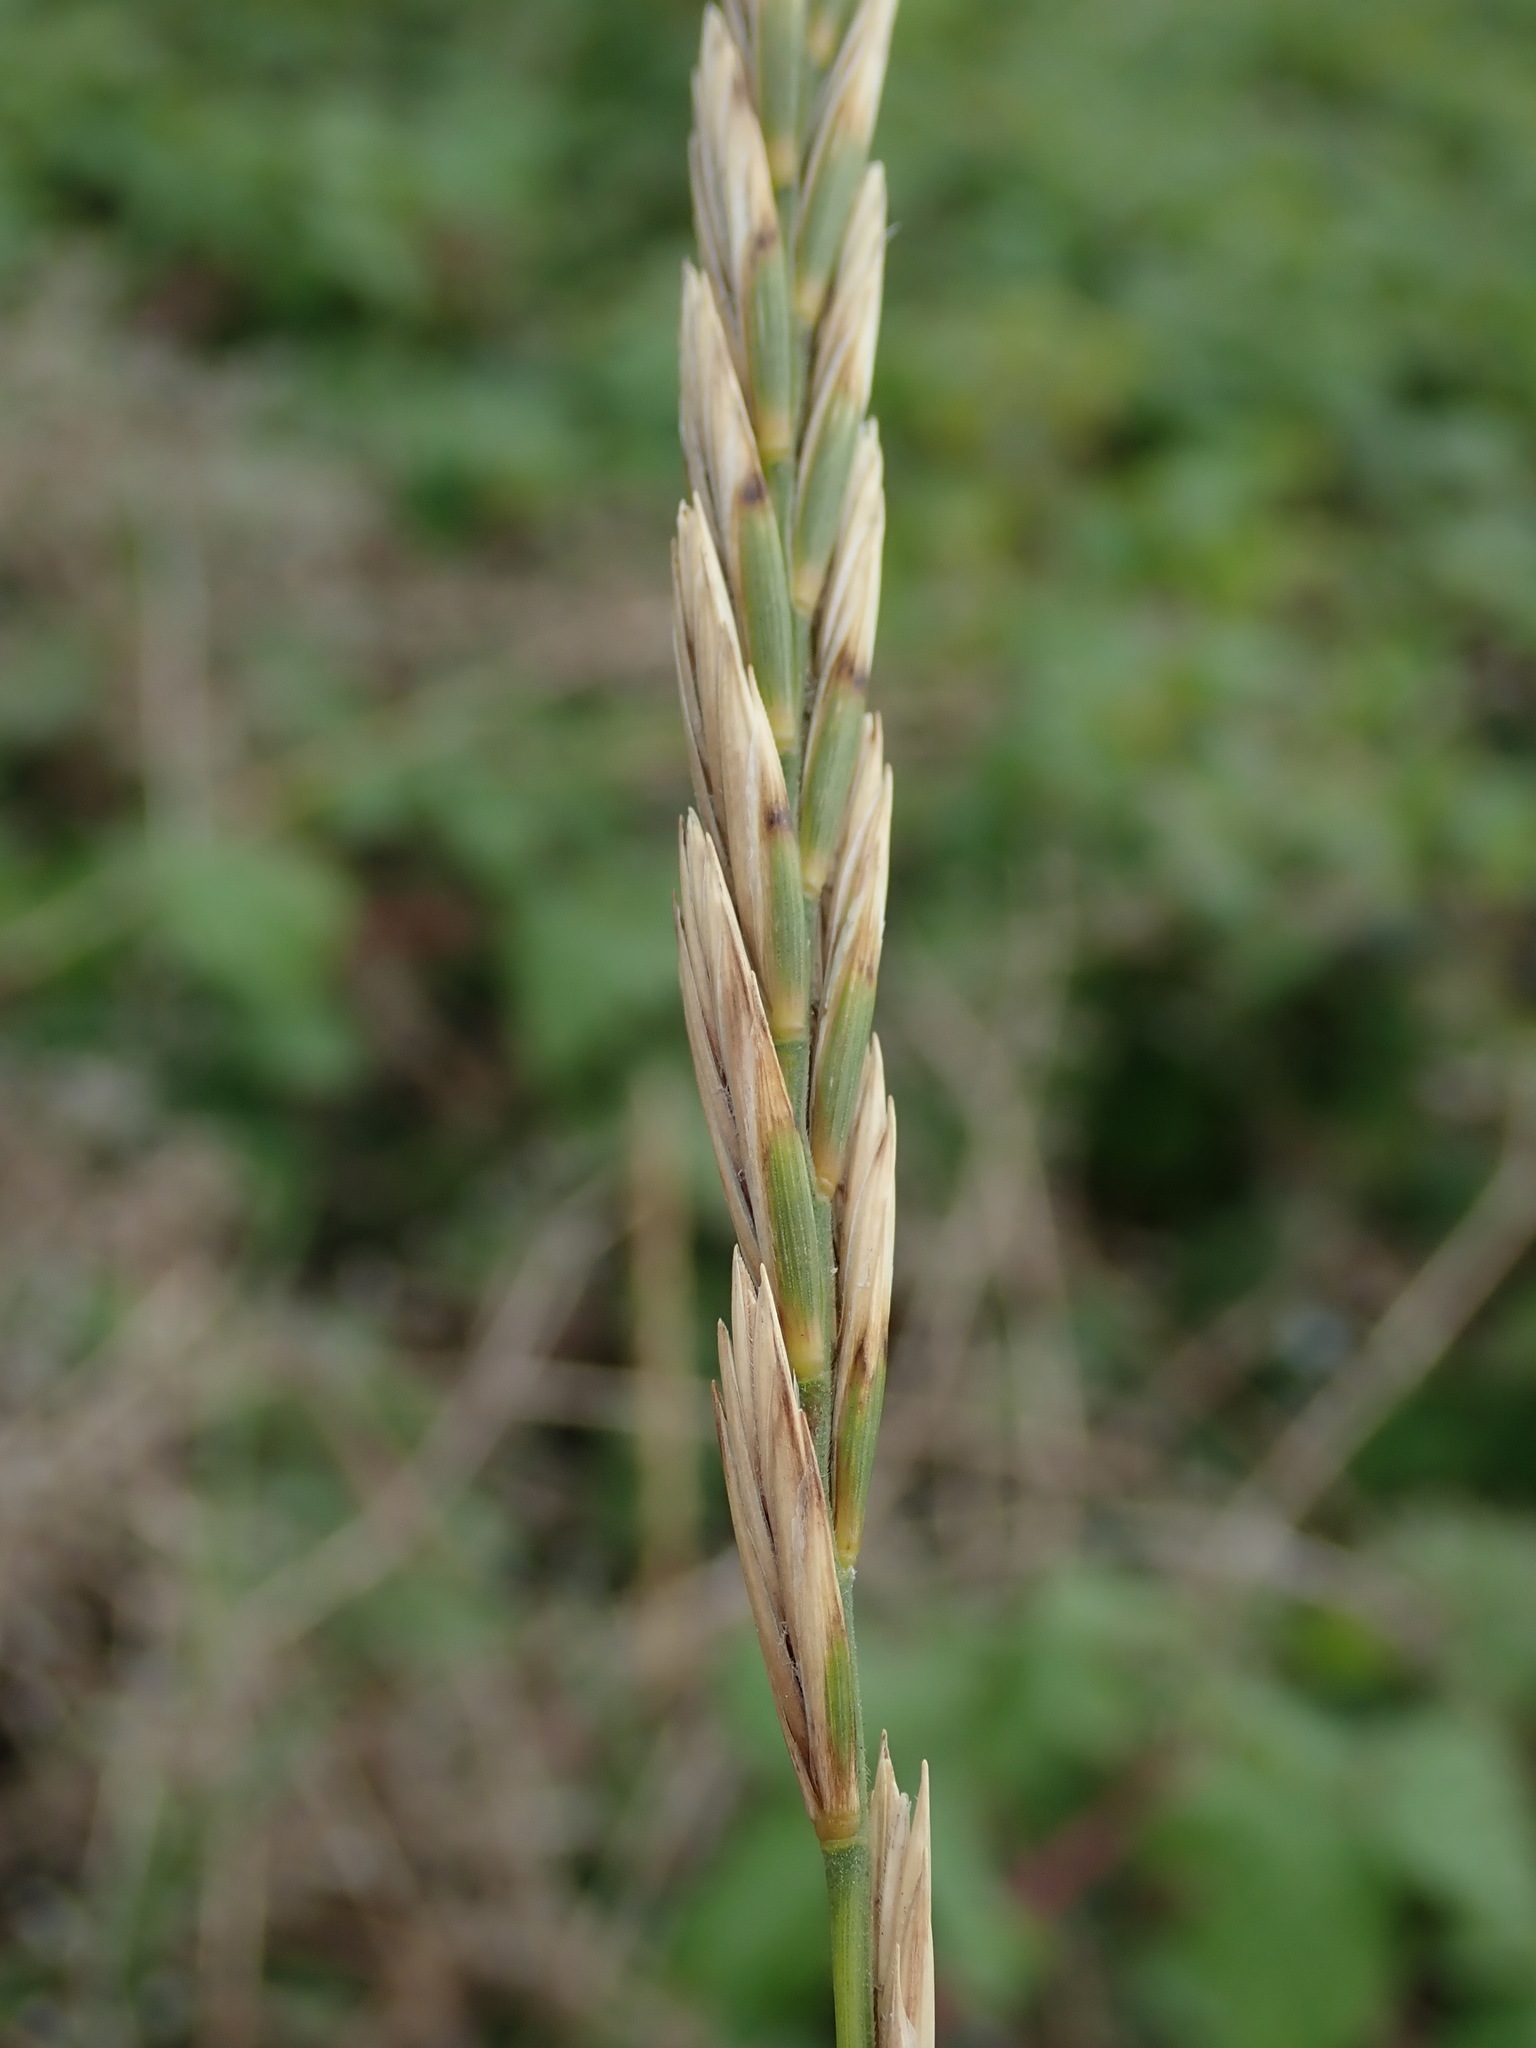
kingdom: Plantae
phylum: Tracheophyta
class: Liliopsida
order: Poales
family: Poaceae
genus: Elymus
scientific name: Elymus athericus
